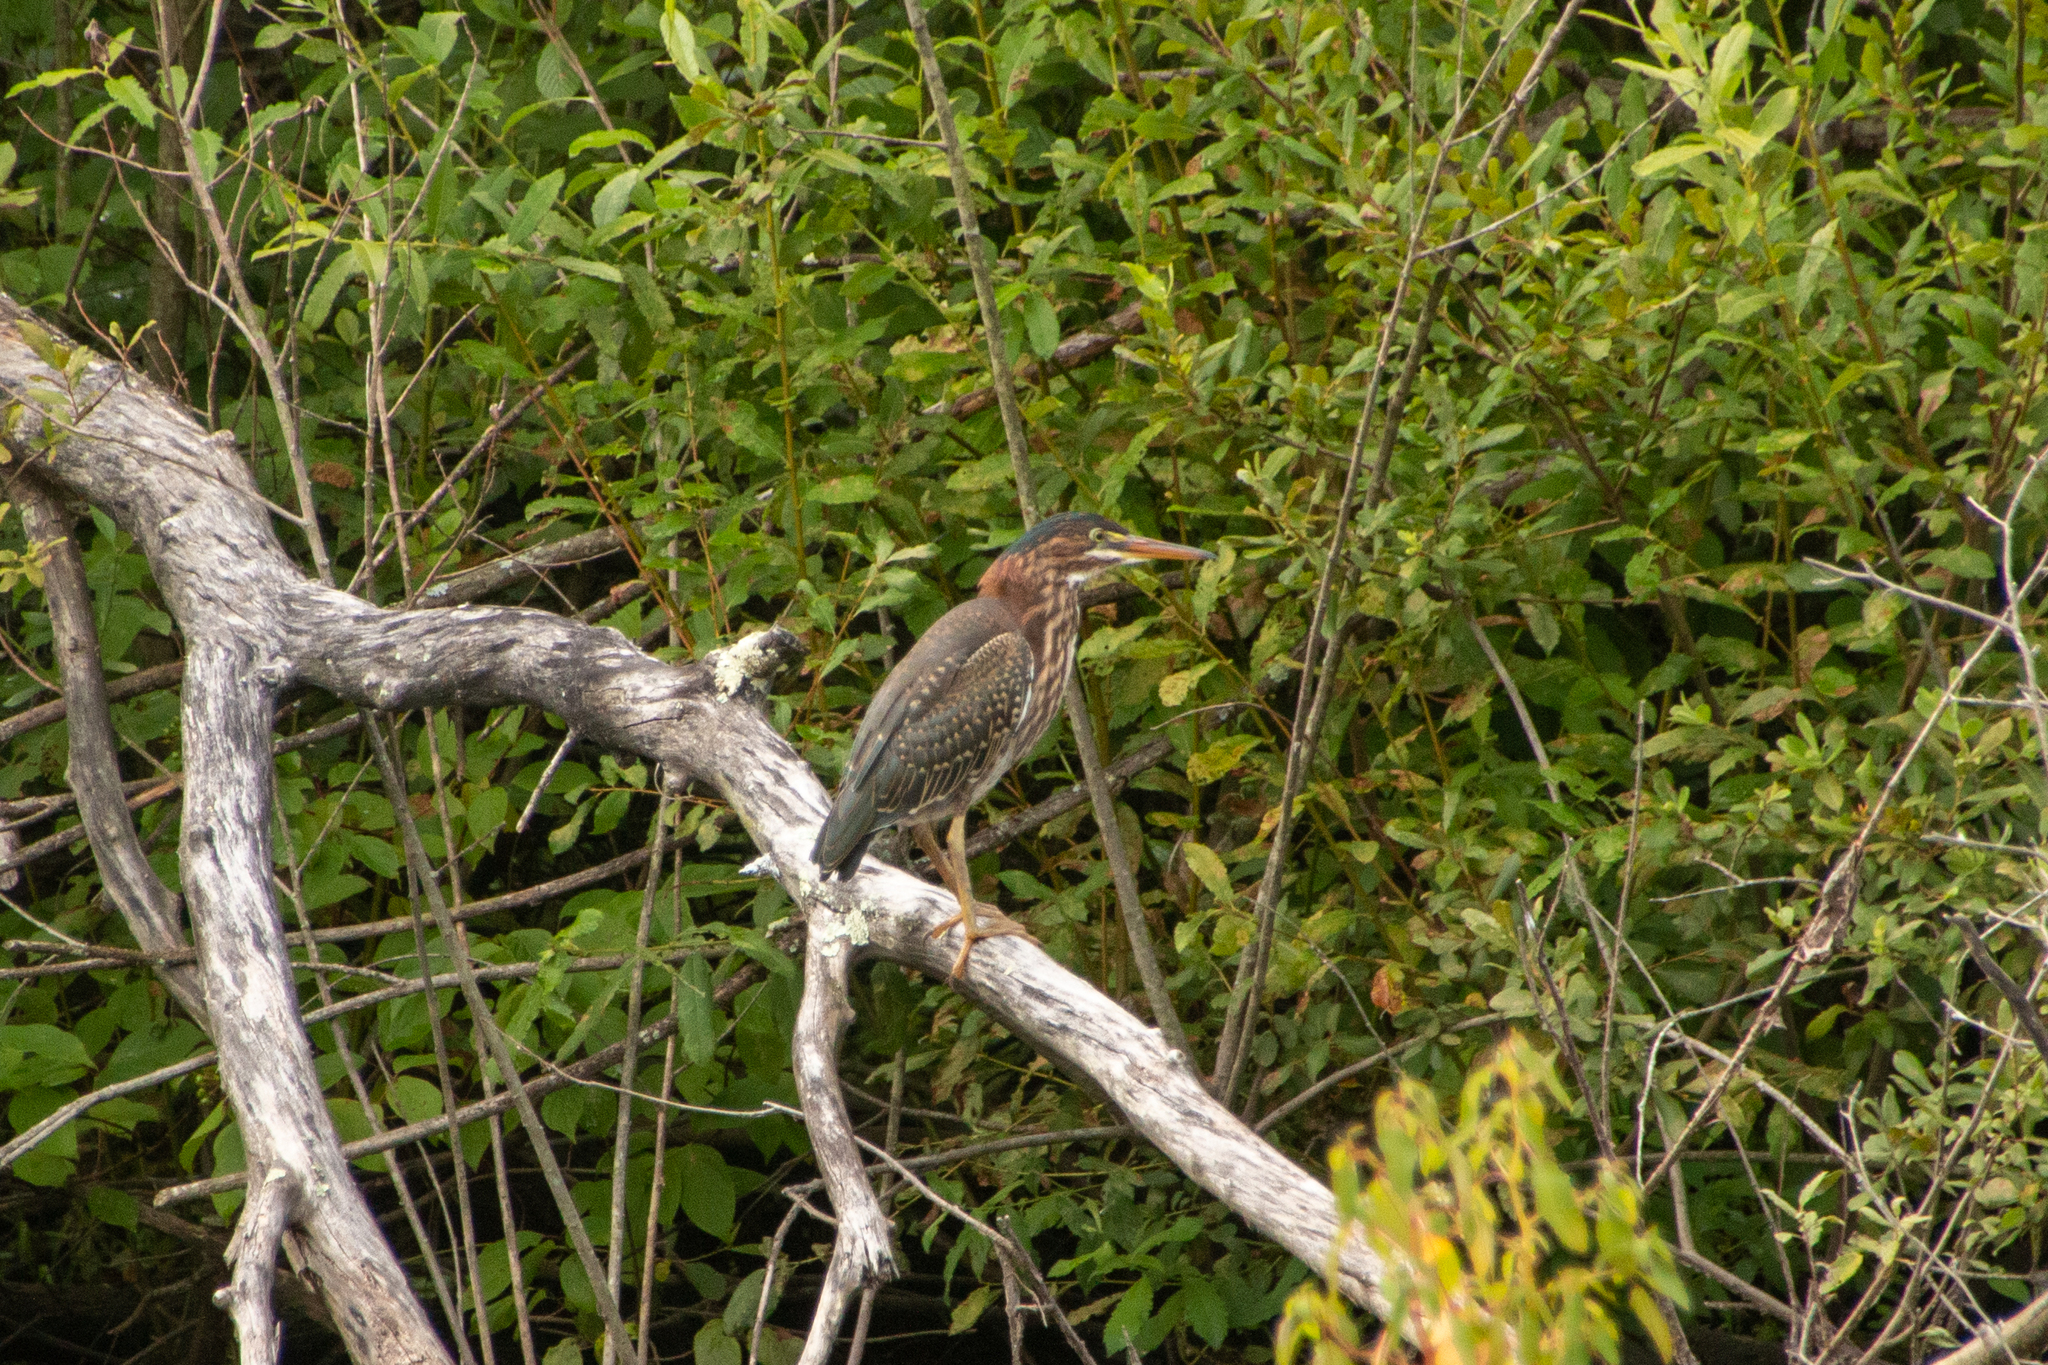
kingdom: Animalia
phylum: Chordata
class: Aves
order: Pelecaniformes
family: Ardeidae
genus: Butorides
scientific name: Butorides virescens
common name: Green heron
